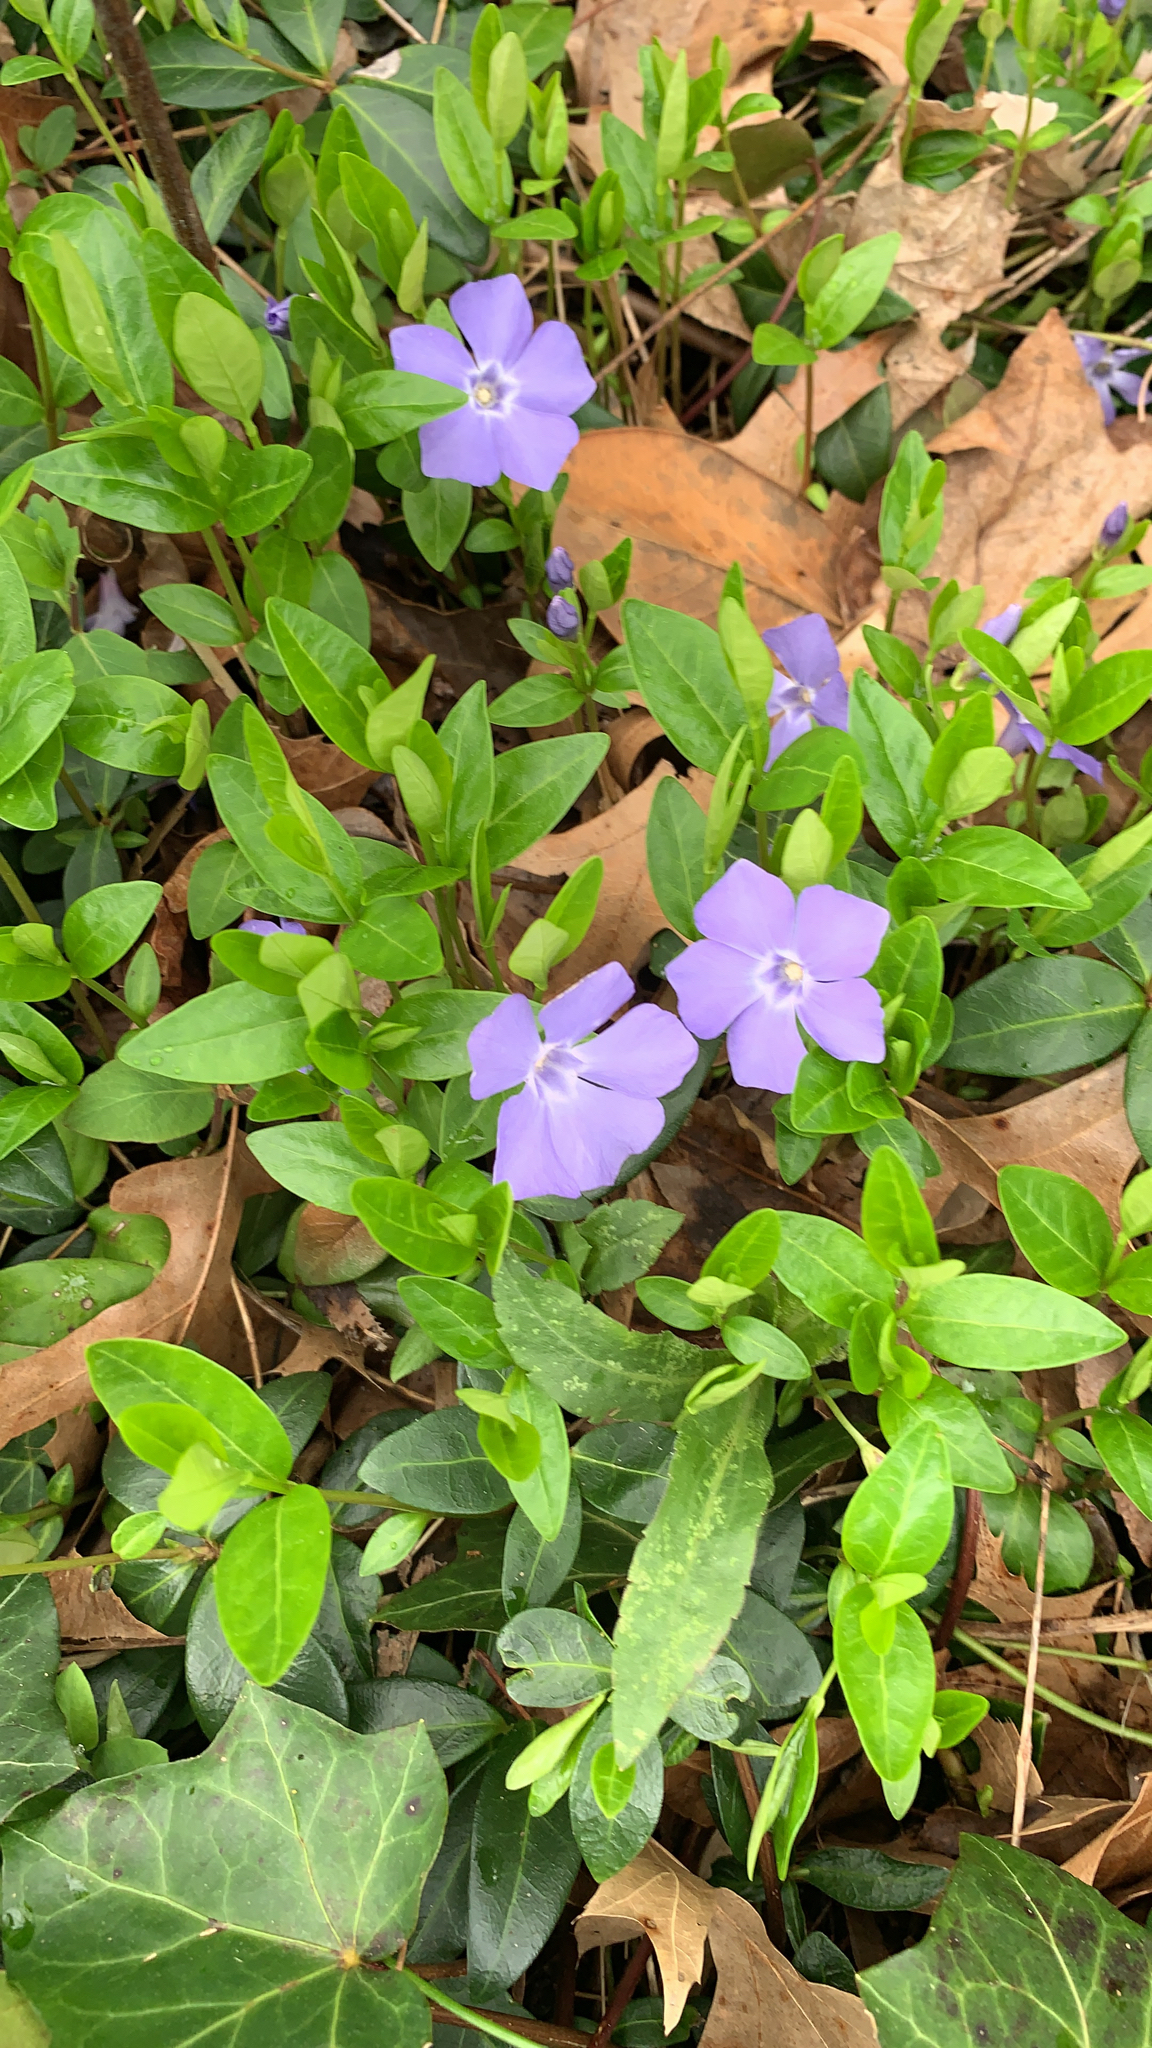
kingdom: Plantae
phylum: Tracheophyta
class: Magnoliopsida
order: Gentianales
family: Apocynaceae
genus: Vinca
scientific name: Vinca minor
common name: Lesser periwinkle
